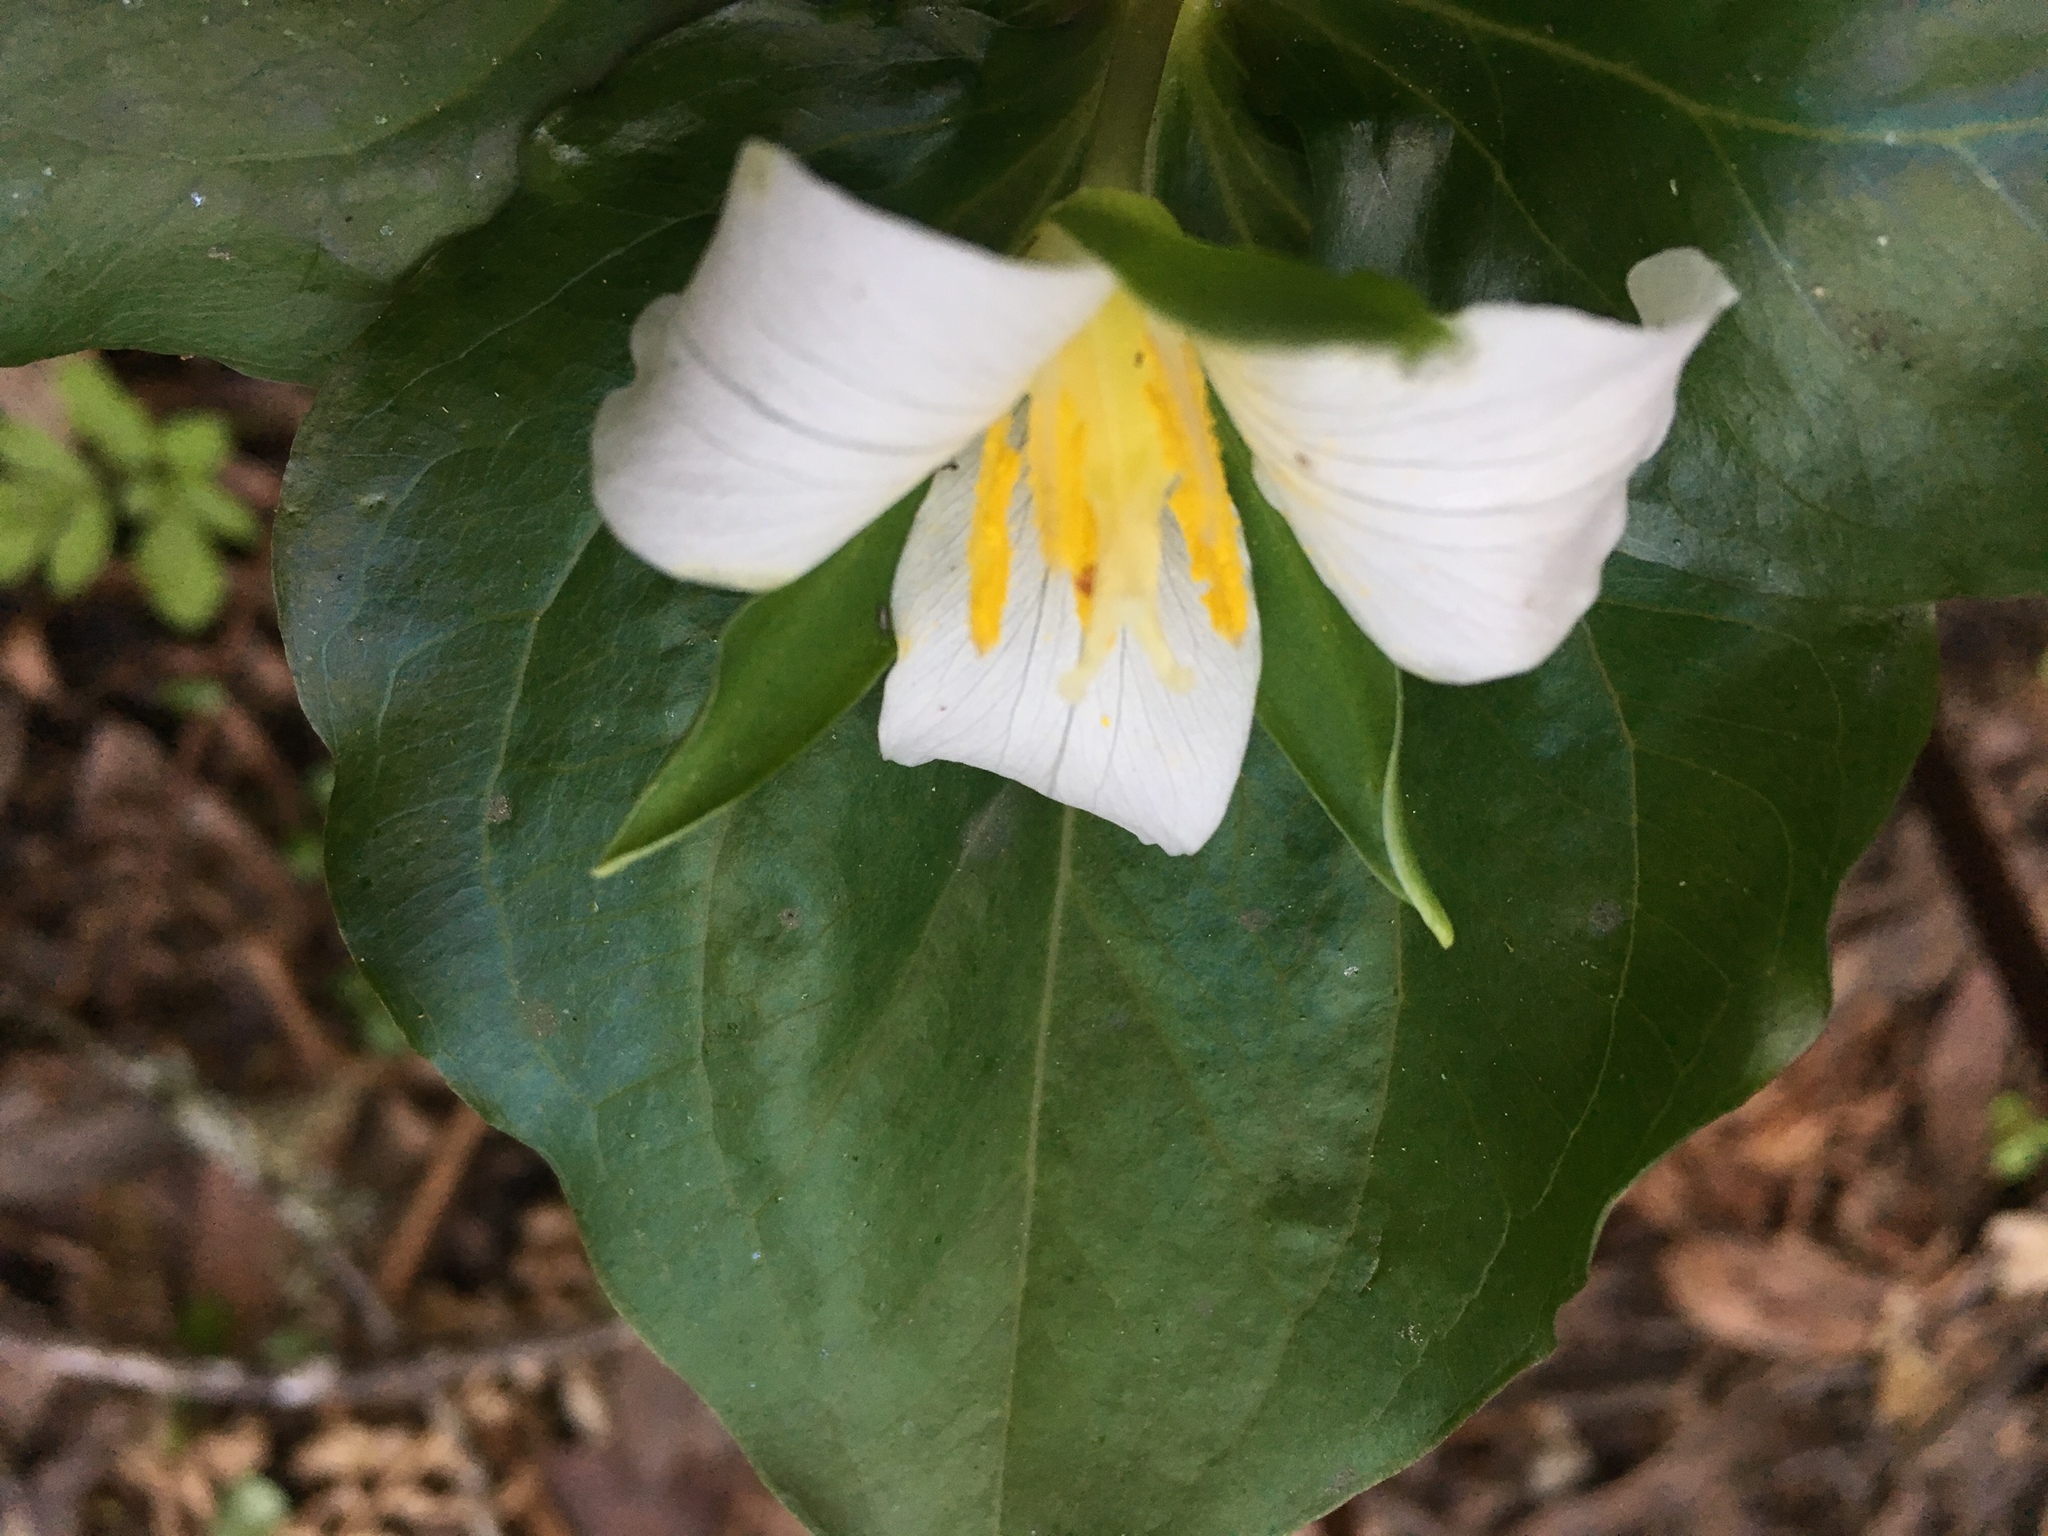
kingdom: Plantae
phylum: Tracheophyta
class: Liliopsida
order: Liliales
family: Melanthiaceae
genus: Trillium
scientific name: Trillium ovatum
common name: Pacific trillium
